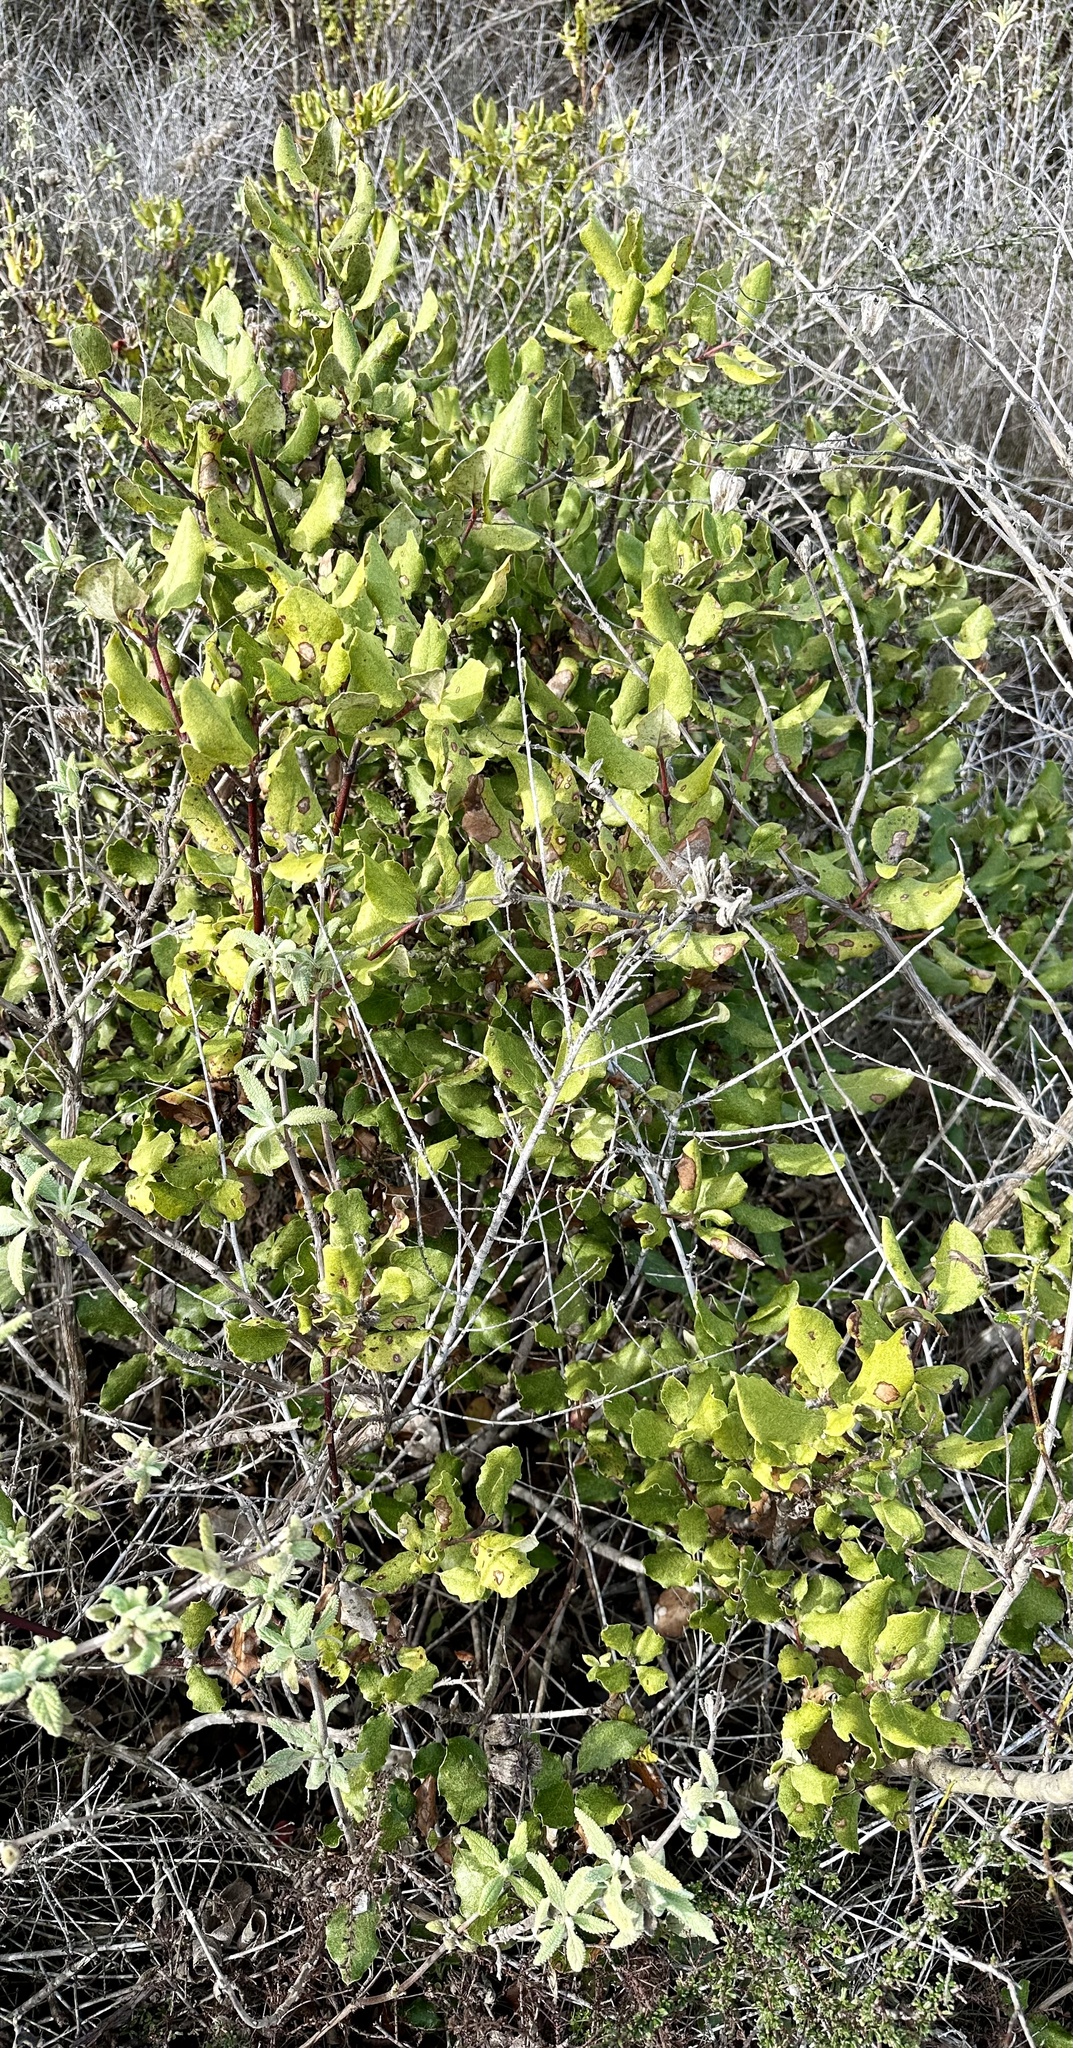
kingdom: Plantae
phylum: Tracheophyta
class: Magnoliopsida
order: Garryales
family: Garryaceae
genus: Garrya
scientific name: Garrya elliptica
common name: Silk-tassel
